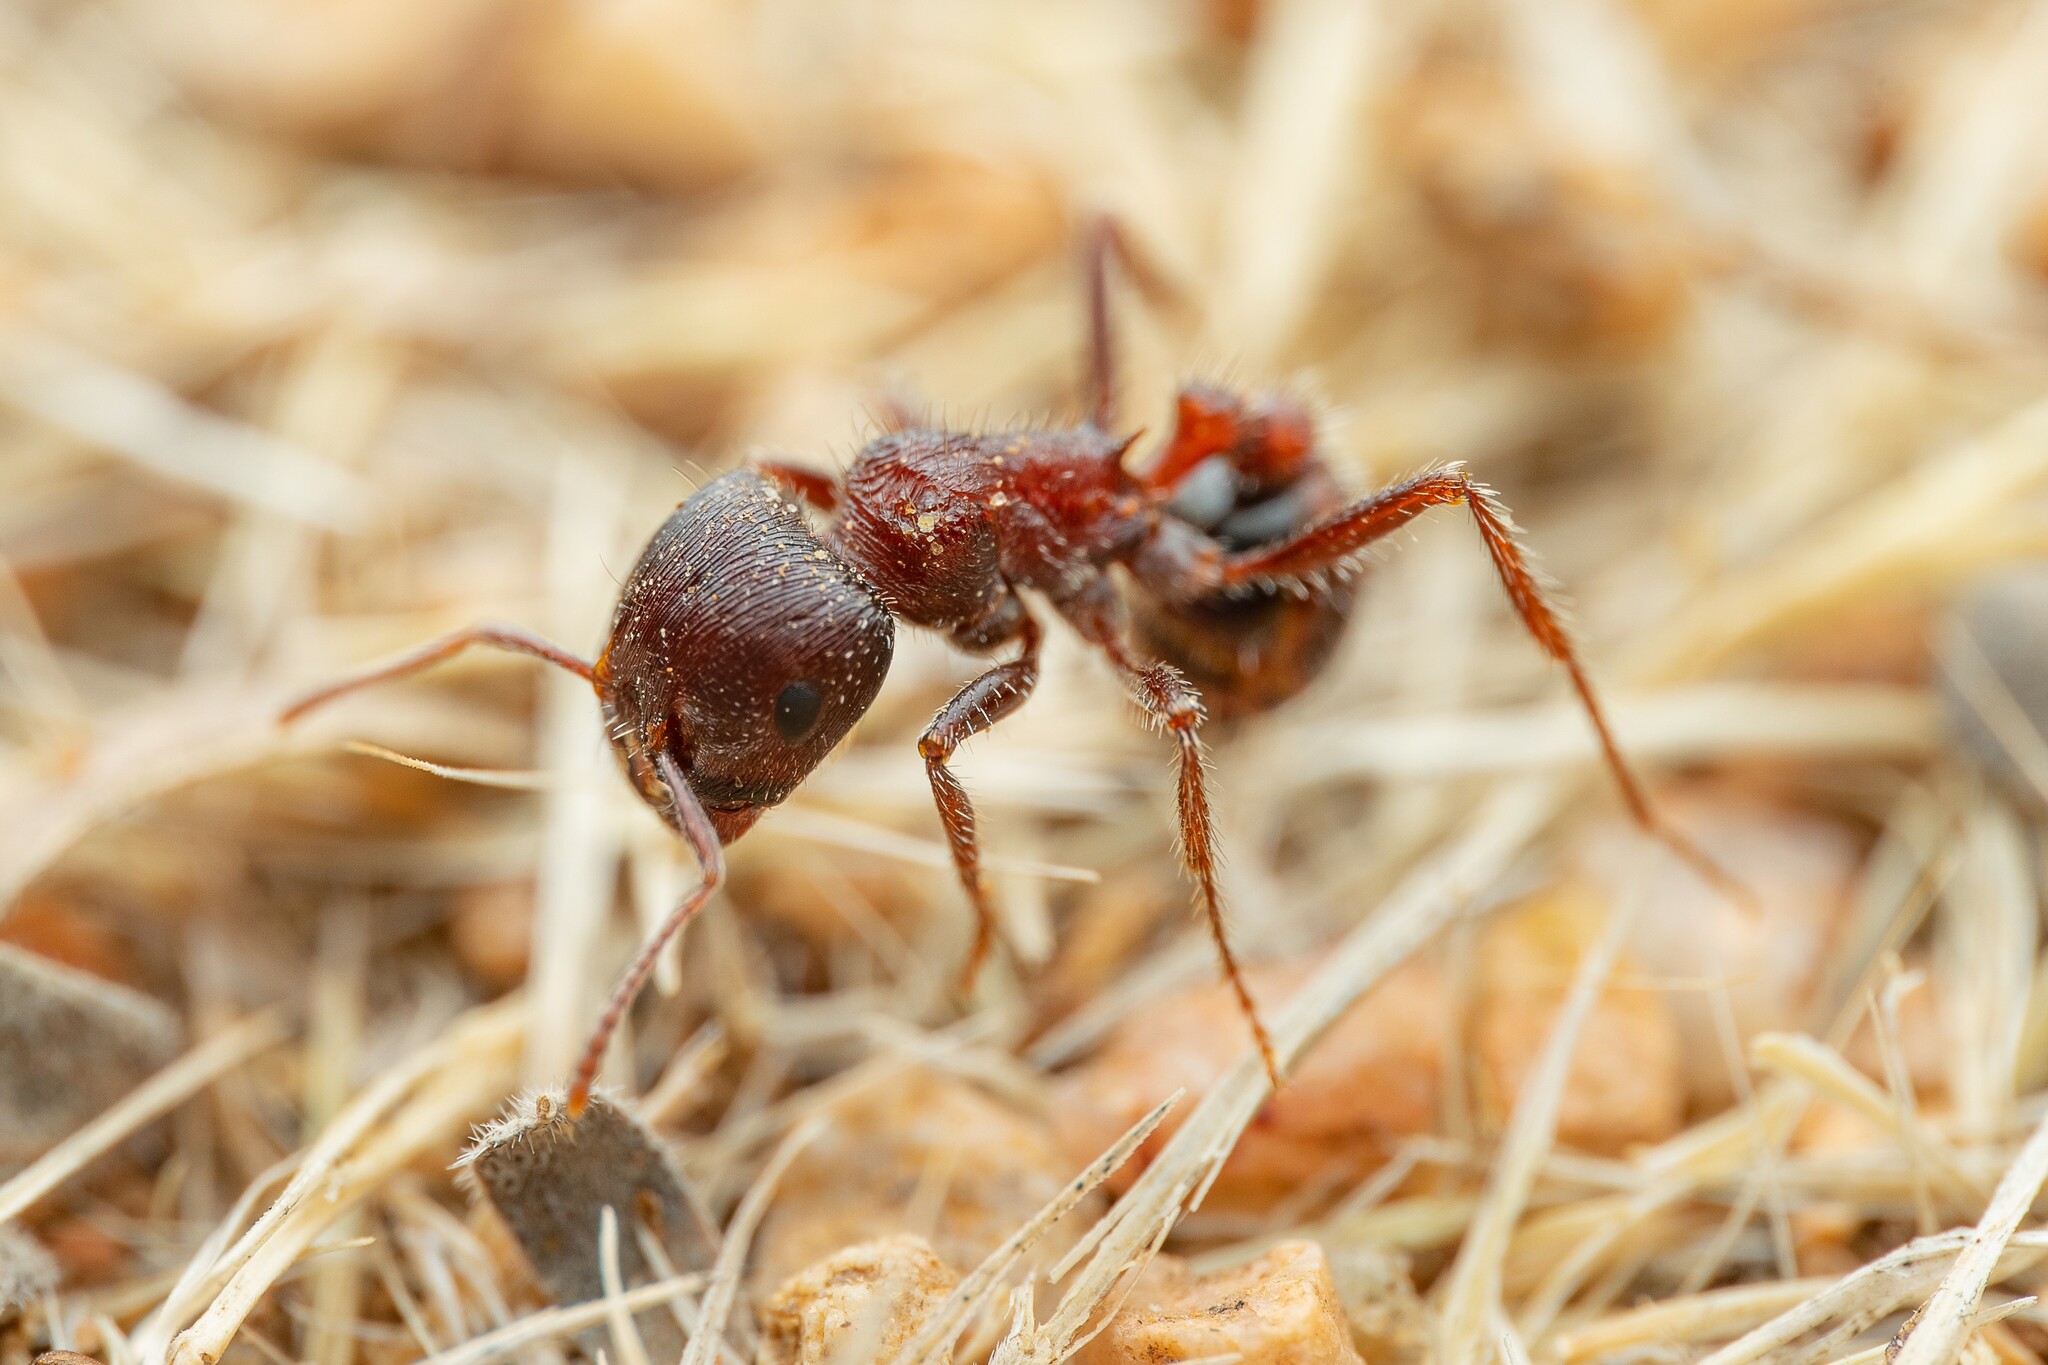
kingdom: Animalia
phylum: Arthropoda
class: Insecta
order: Hymenoptera
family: Formicidae
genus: Pogonomyrmex
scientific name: Pogonomyrmex rugosus
